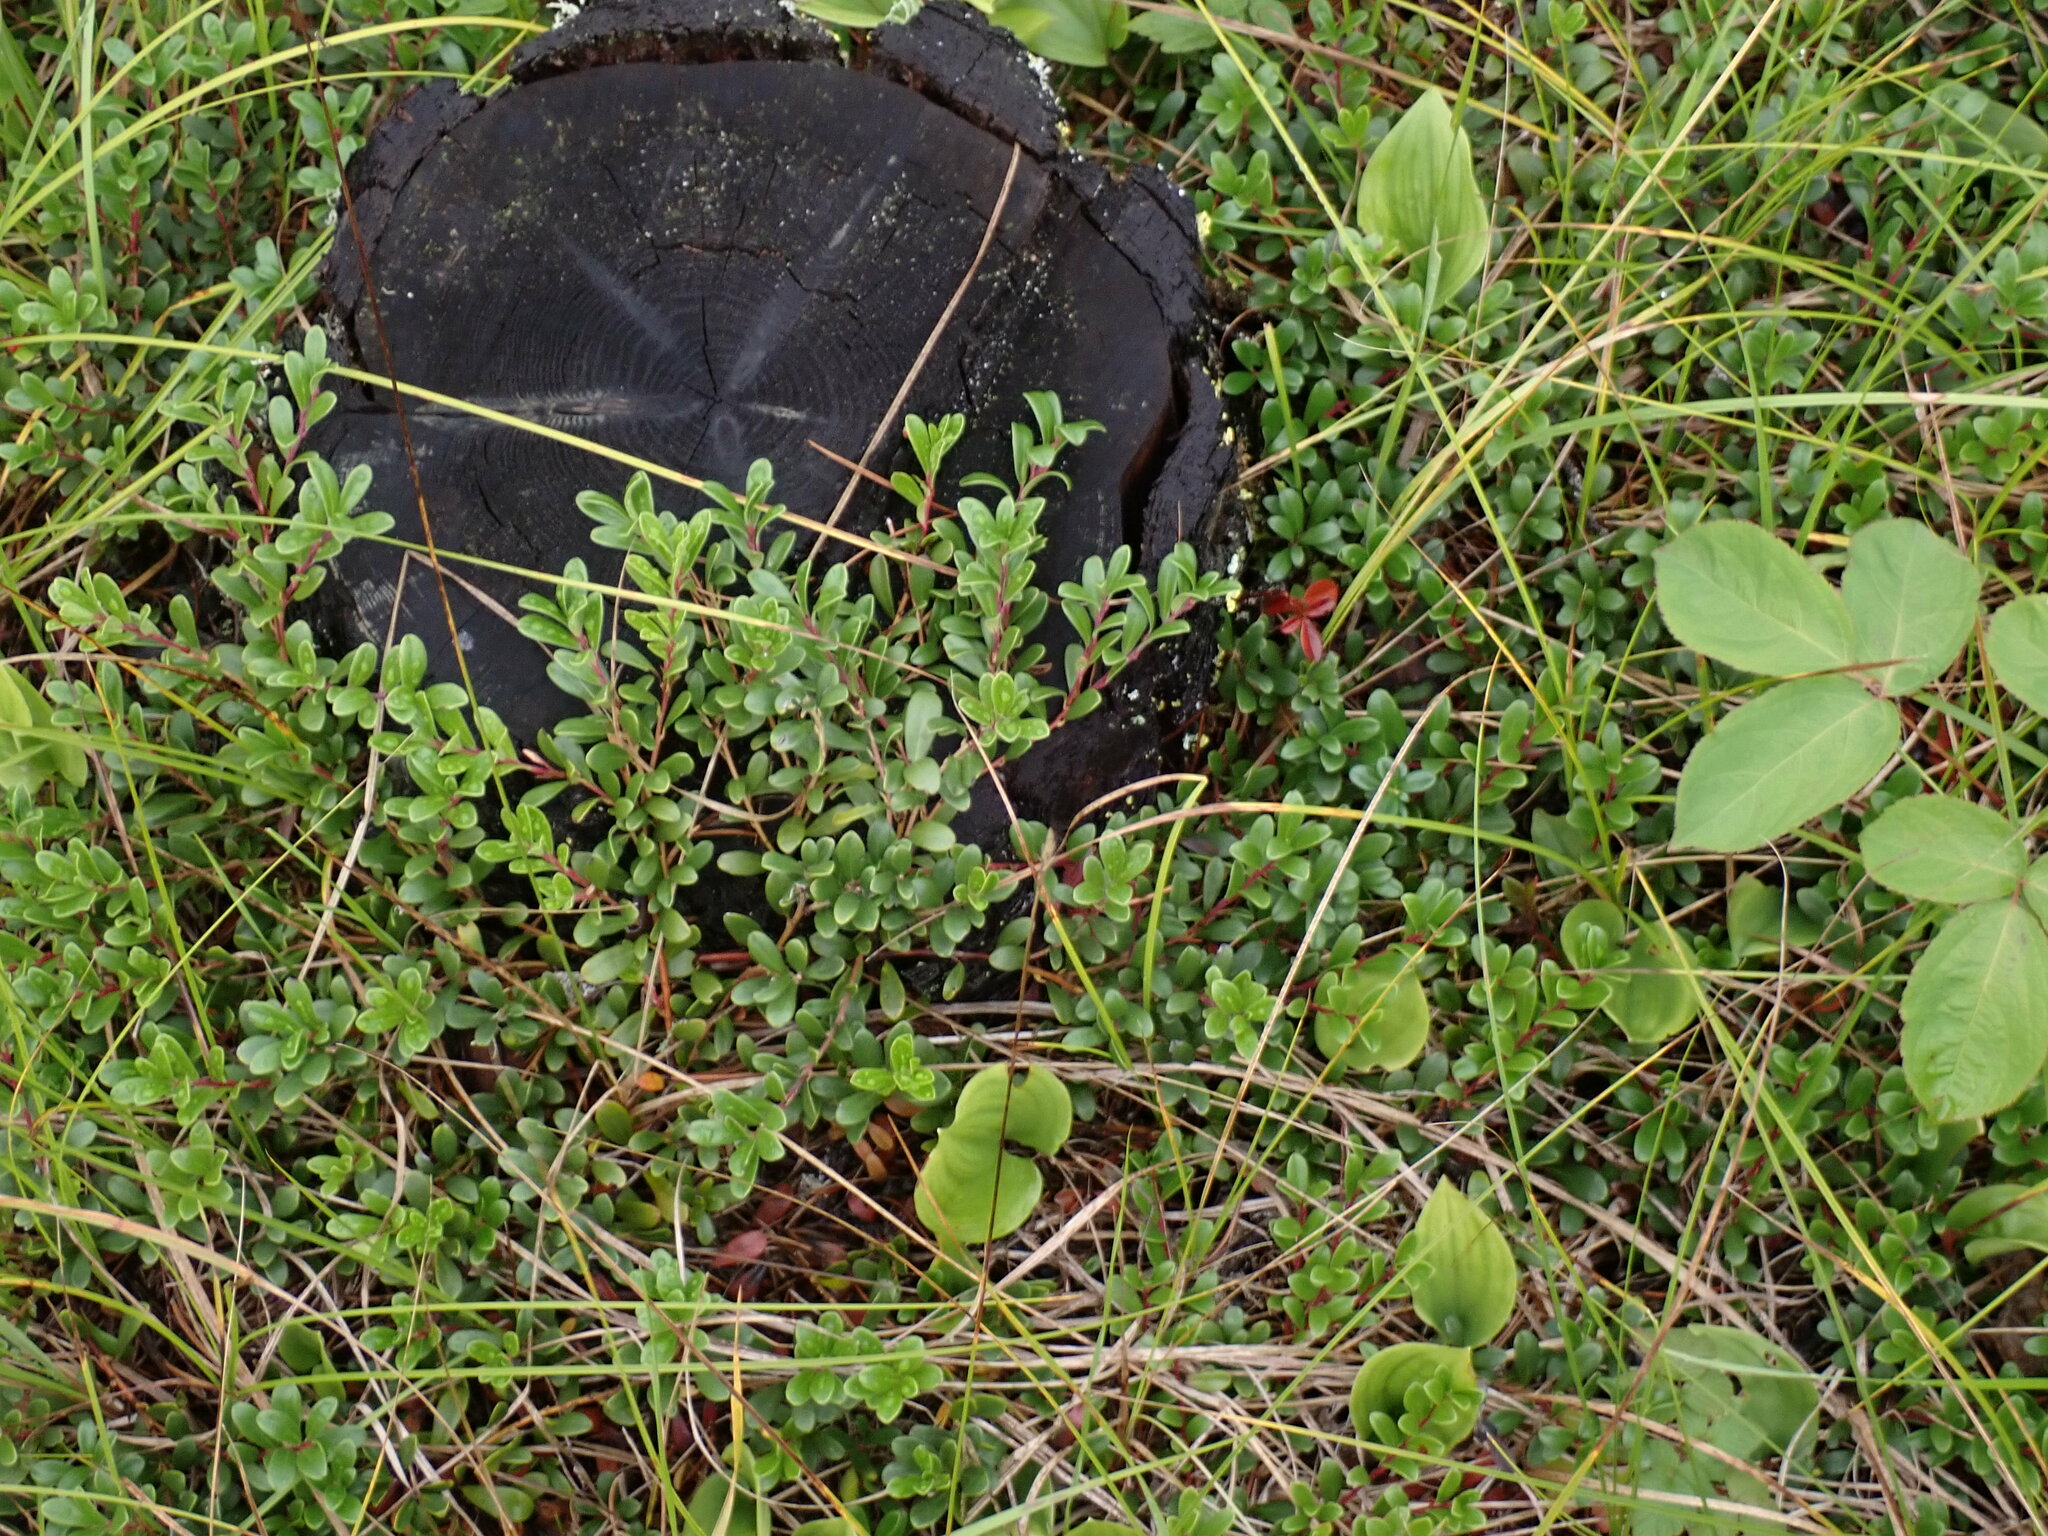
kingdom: Plantae
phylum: Tracheophyta
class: Magnoliopsida
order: Ericales
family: Ericaceae
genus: Arctostaphylos
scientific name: Arctostaphylos uva-ursi
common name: Bearberry
